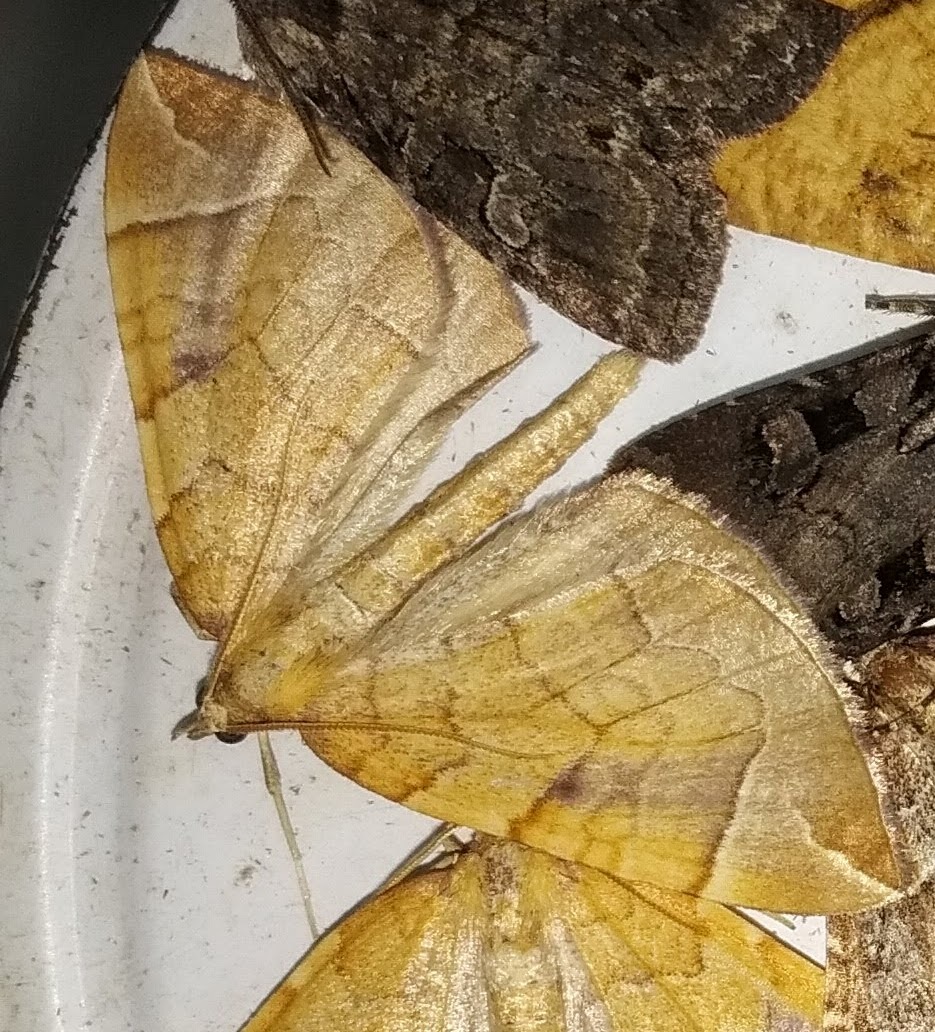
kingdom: Animalia
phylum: Arthropoda
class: Insecta
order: Lepidoptera
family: Geometridae
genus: Eulithis
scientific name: Eulithis testata
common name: Chevron
